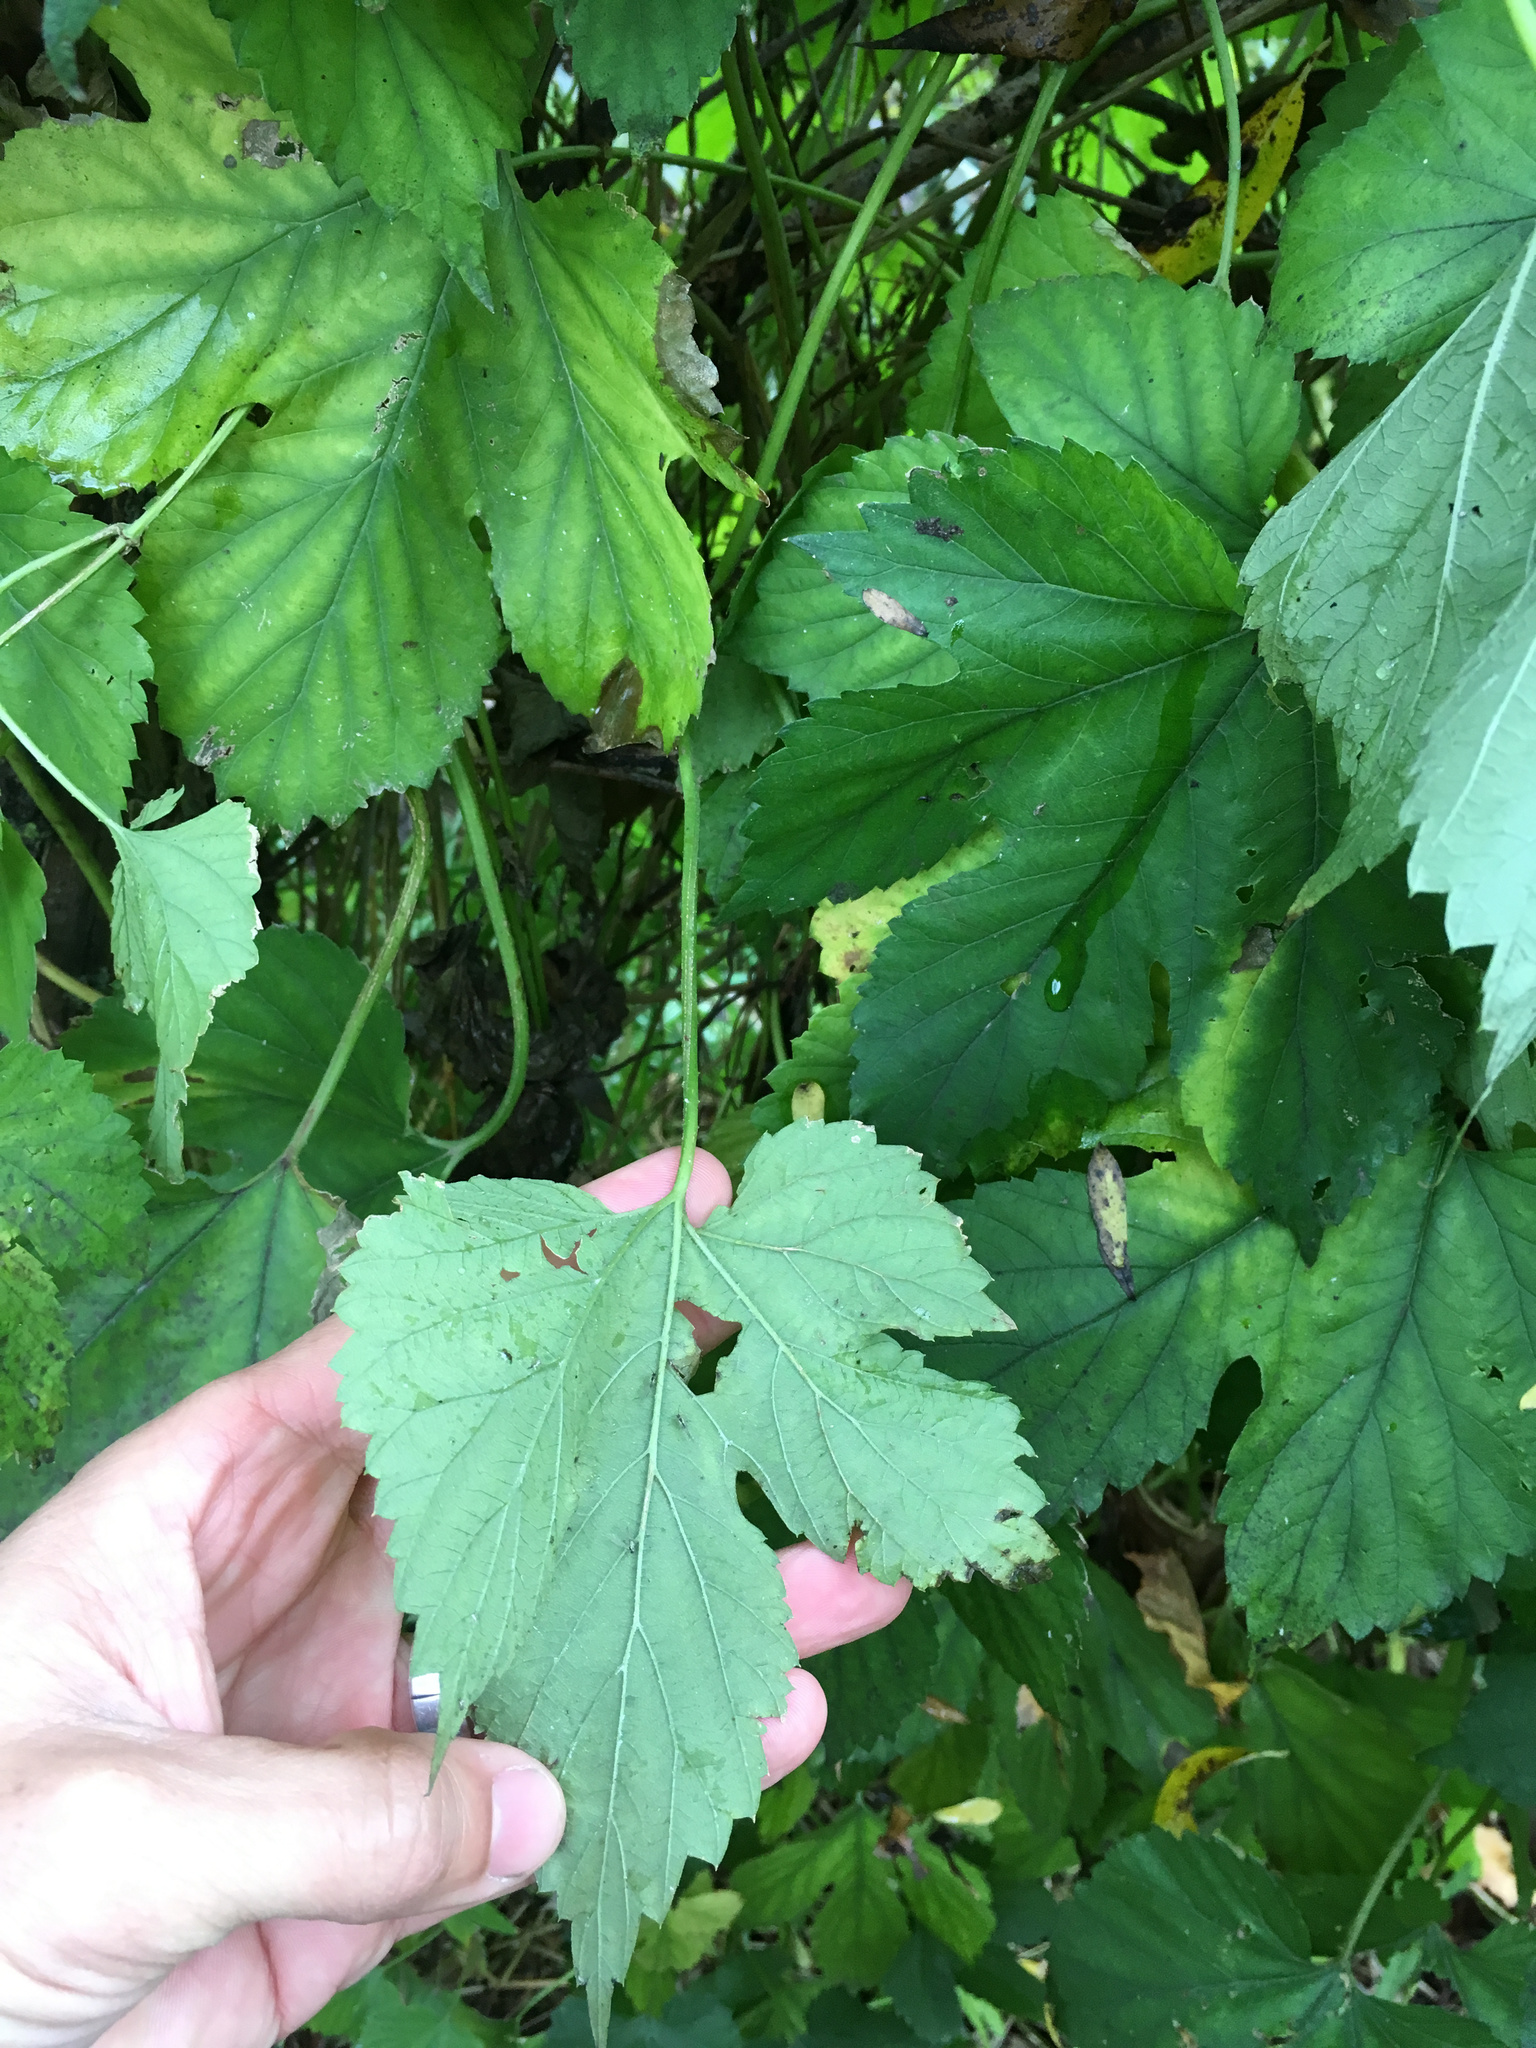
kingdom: Plantae
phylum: Tracheophyta
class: Magnoliopsida
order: Rosales
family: Cannabaceae
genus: Humulus
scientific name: Humulus lupulus
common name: Hop
